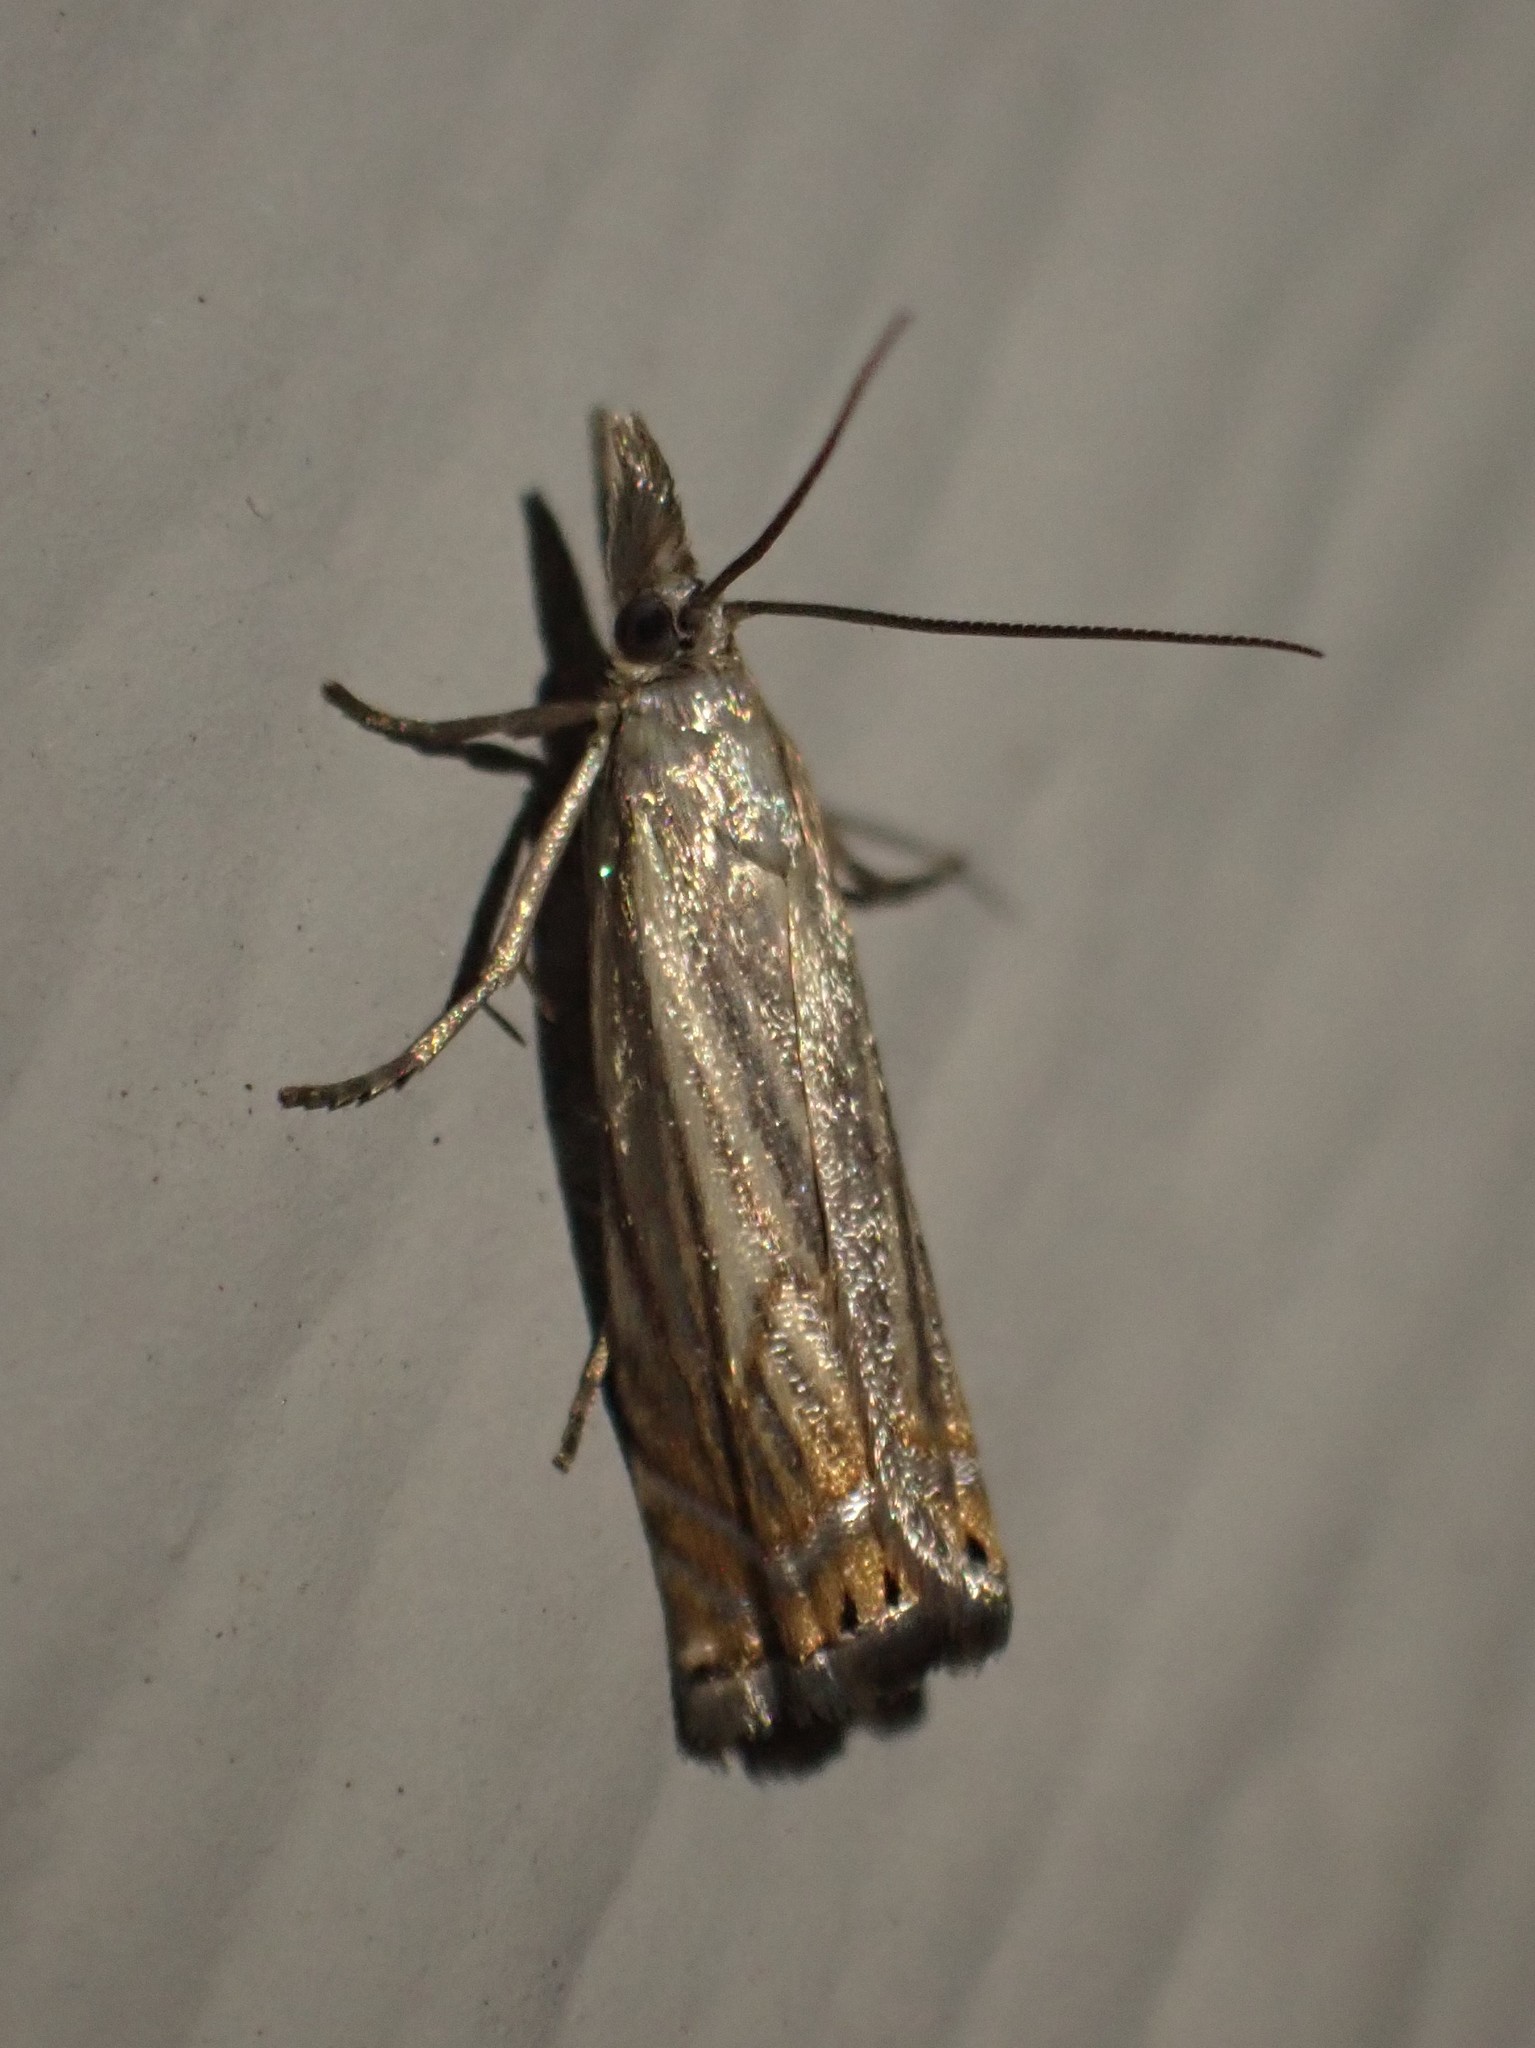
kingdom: Animalia
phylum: Arthropoda
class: Insecta
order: Lepidoptera
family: Crambidae
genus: Chrysoteuchia
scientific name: Chrysoteuchia topiarius
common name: Topiary grass-veneer
